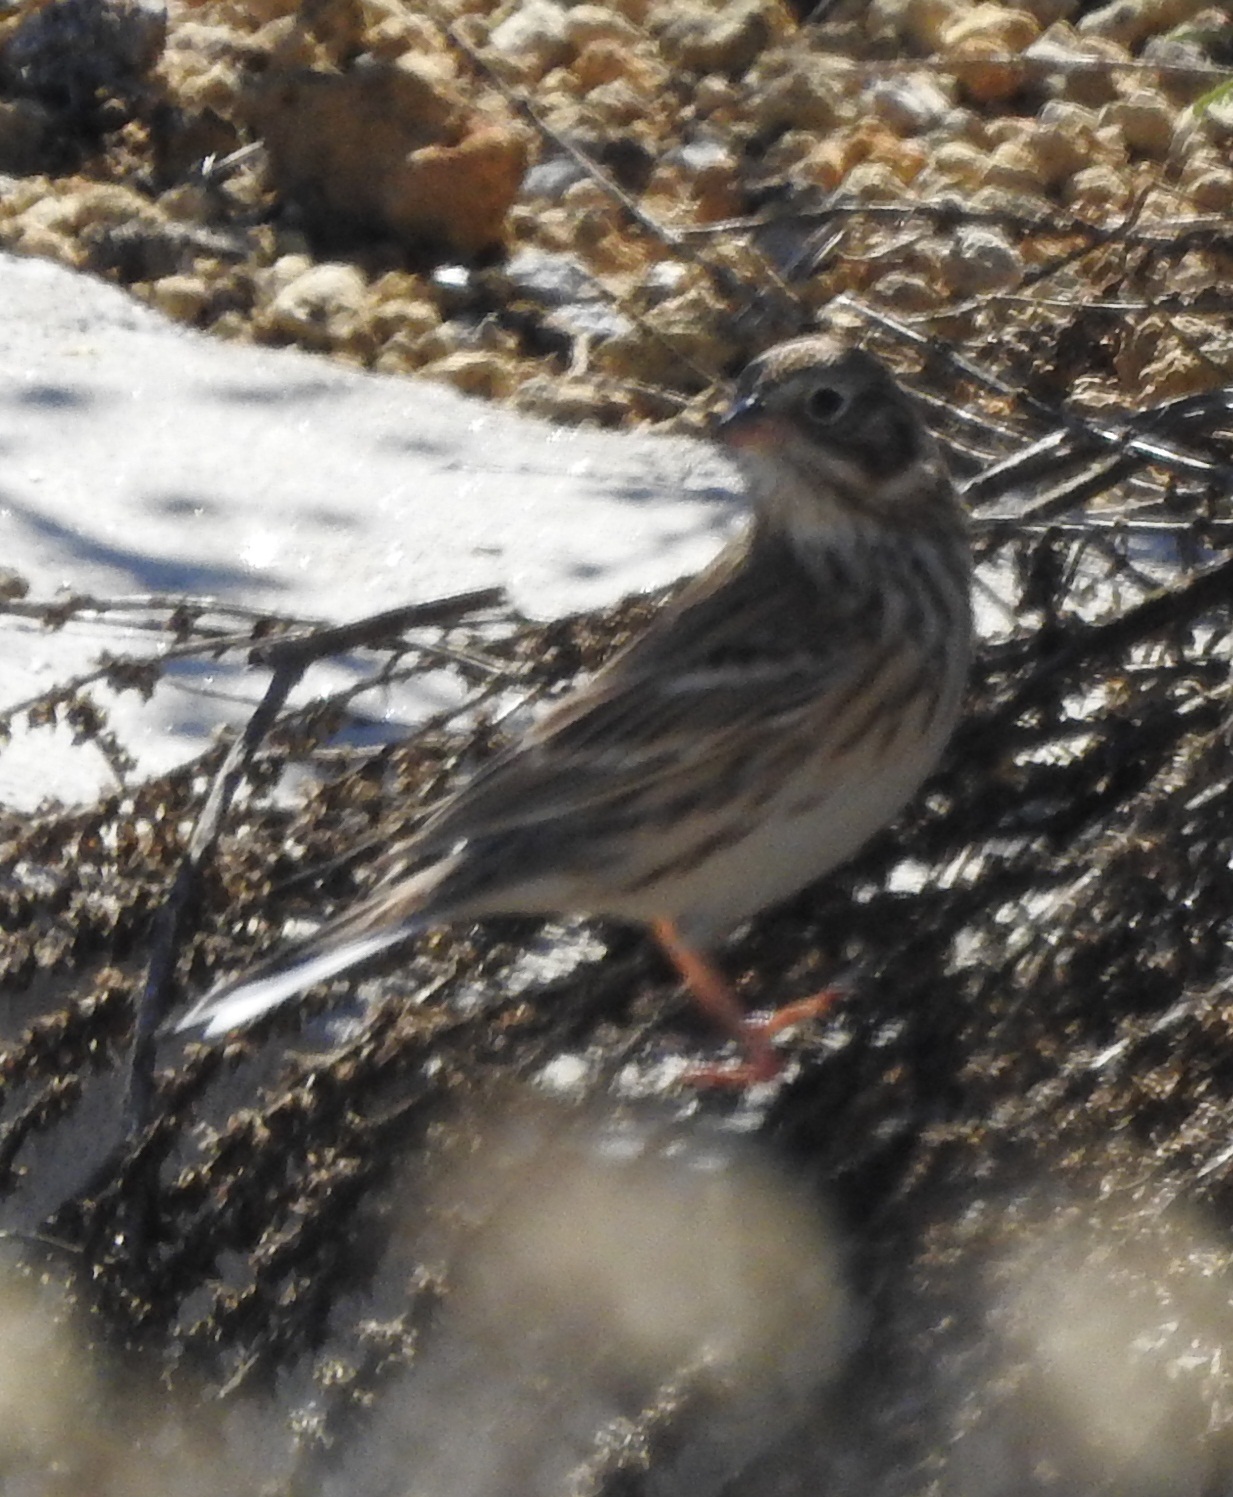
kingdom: Animalia
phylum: Chordata
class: Aves
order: Passeriformes
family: Passerellidae
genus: Pooecetes
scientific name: Pooecetes gramineus
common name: Vesper sparrow
